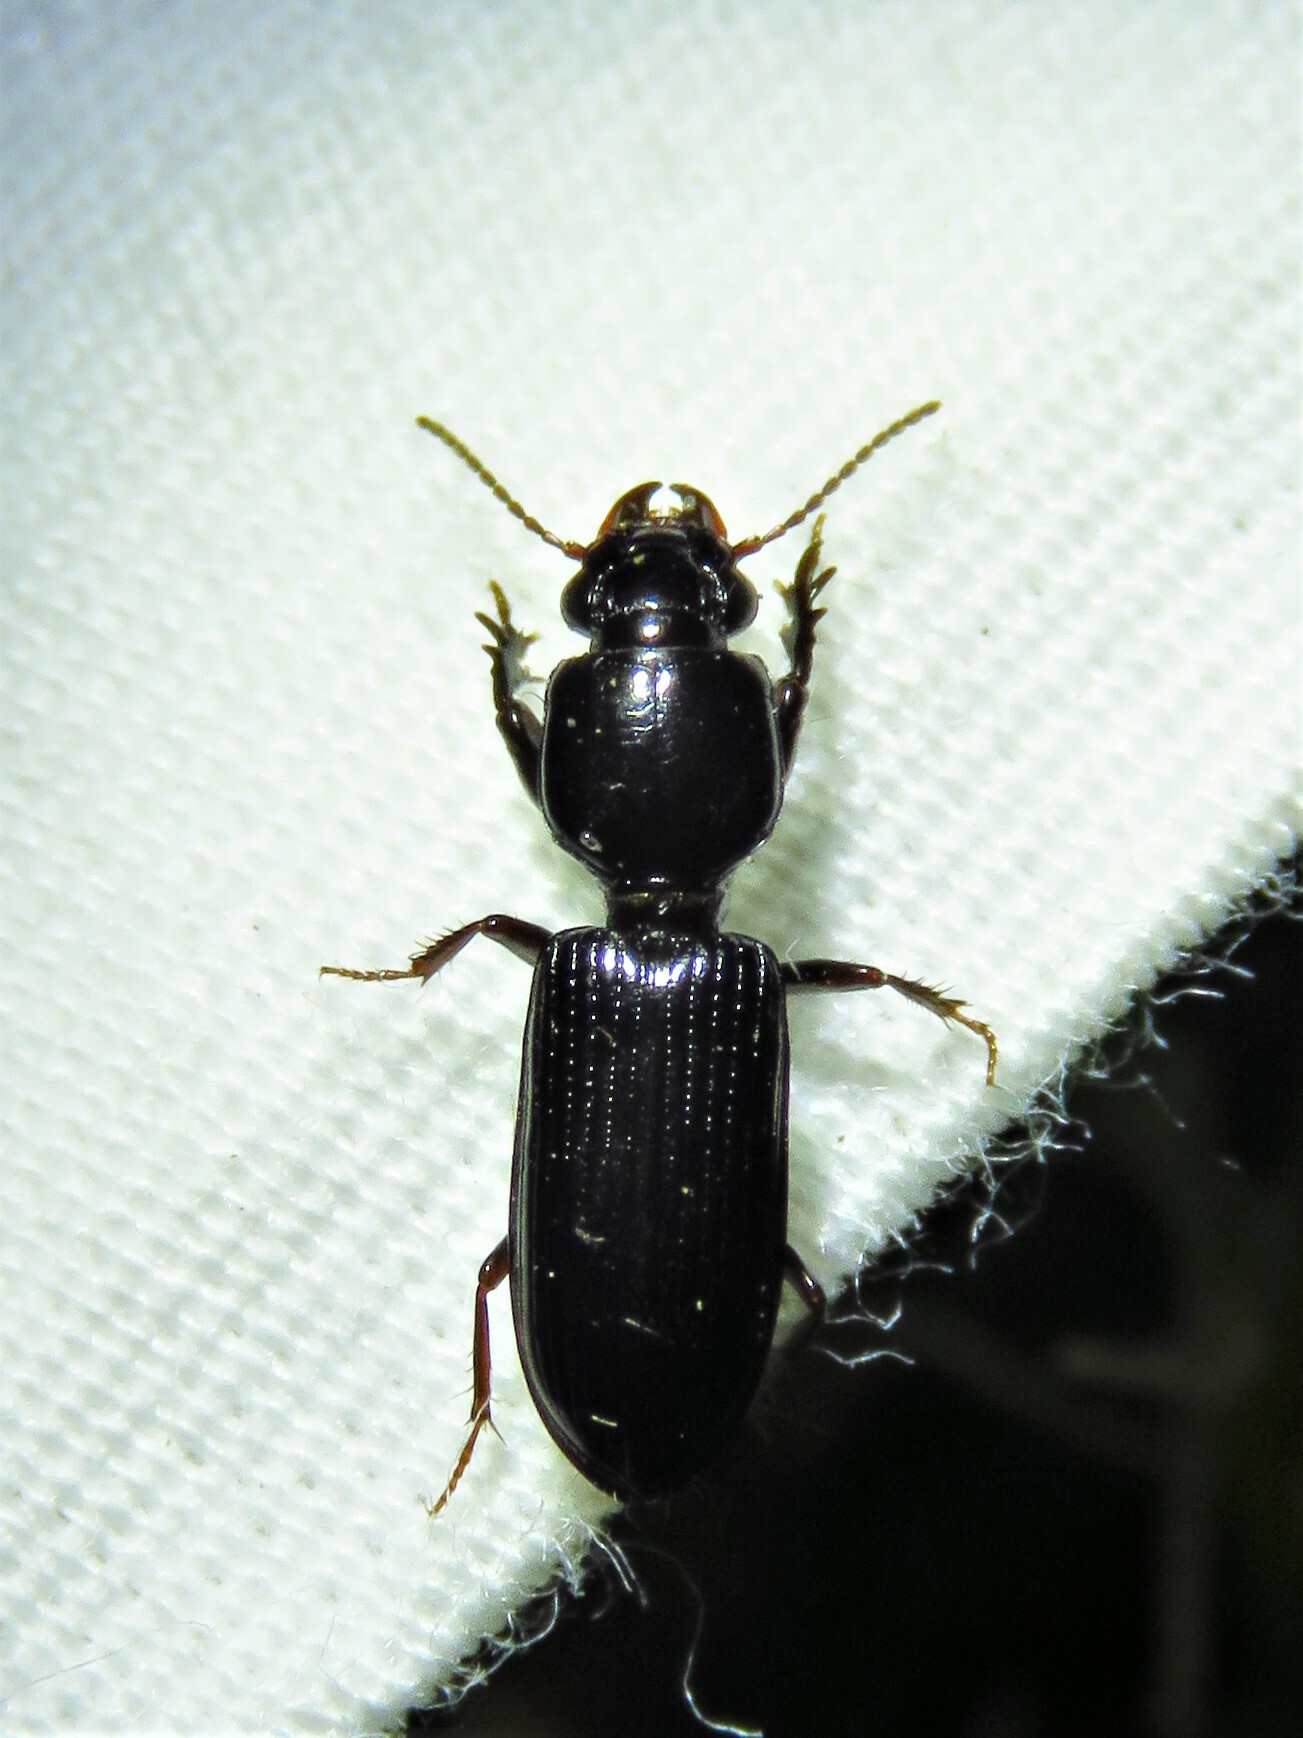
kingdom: Animalia
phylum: Arthropoda
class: Insecta
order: Coleoptera
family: Carabidae
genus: Semiclivina
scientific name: Semiclivina dentipes
